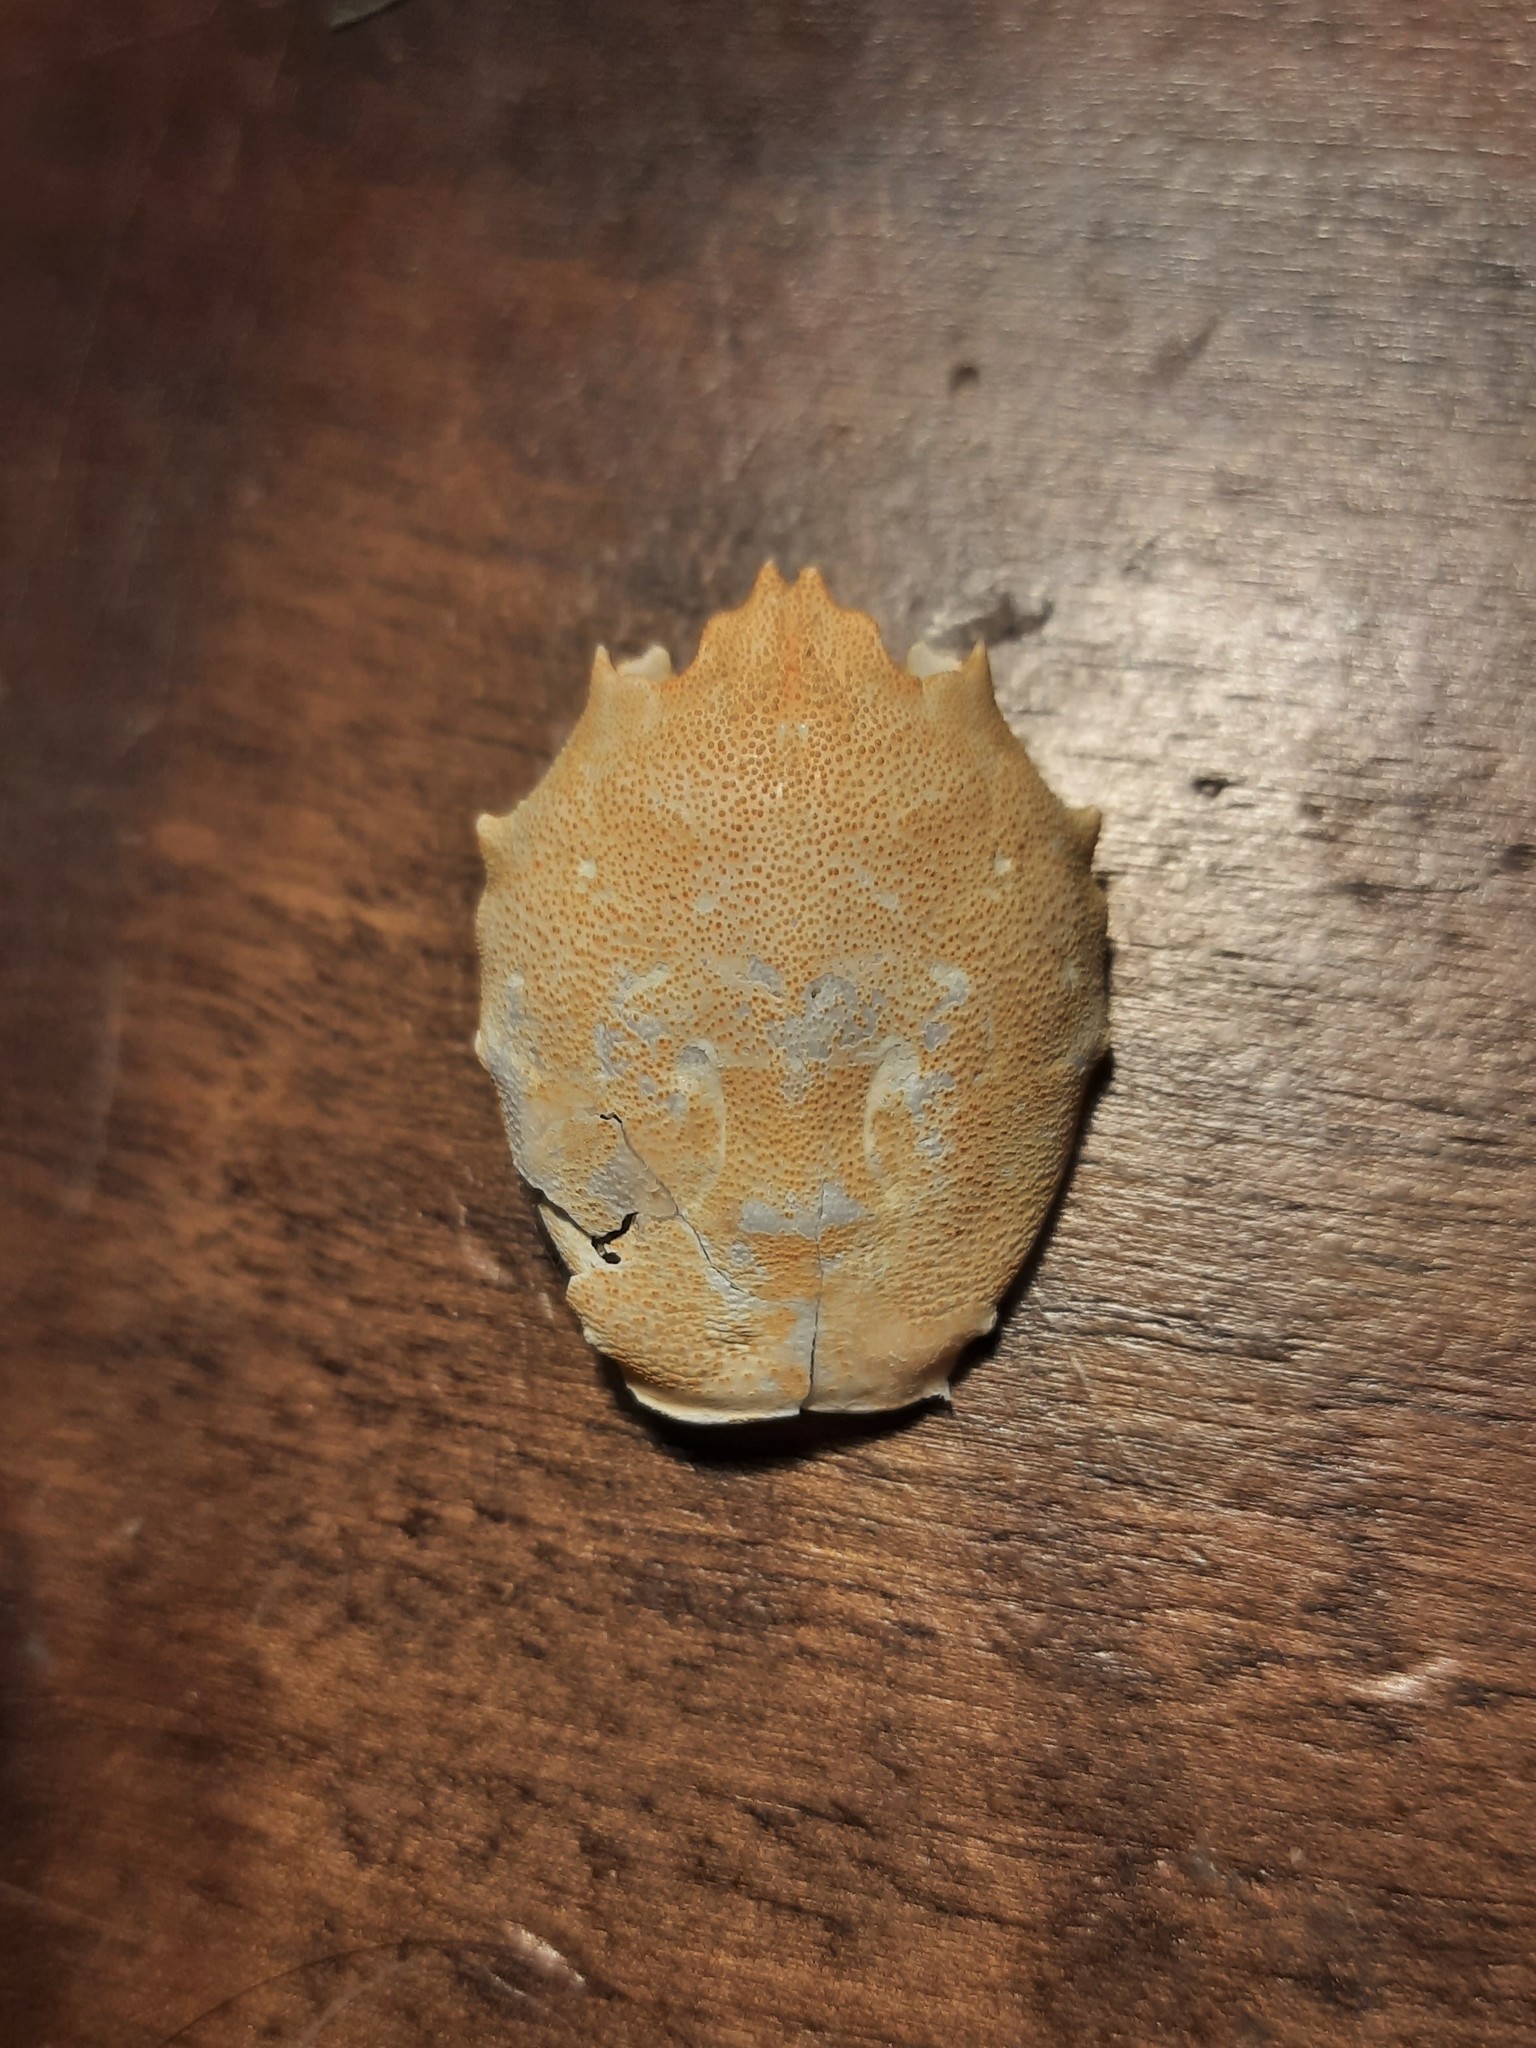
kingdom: Animalia
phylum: Arthropoda
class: Malacostraca
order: Decapoda
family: Corystidae
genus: Corystes
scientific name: Corystes cassivelaunus
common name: Masked crab
